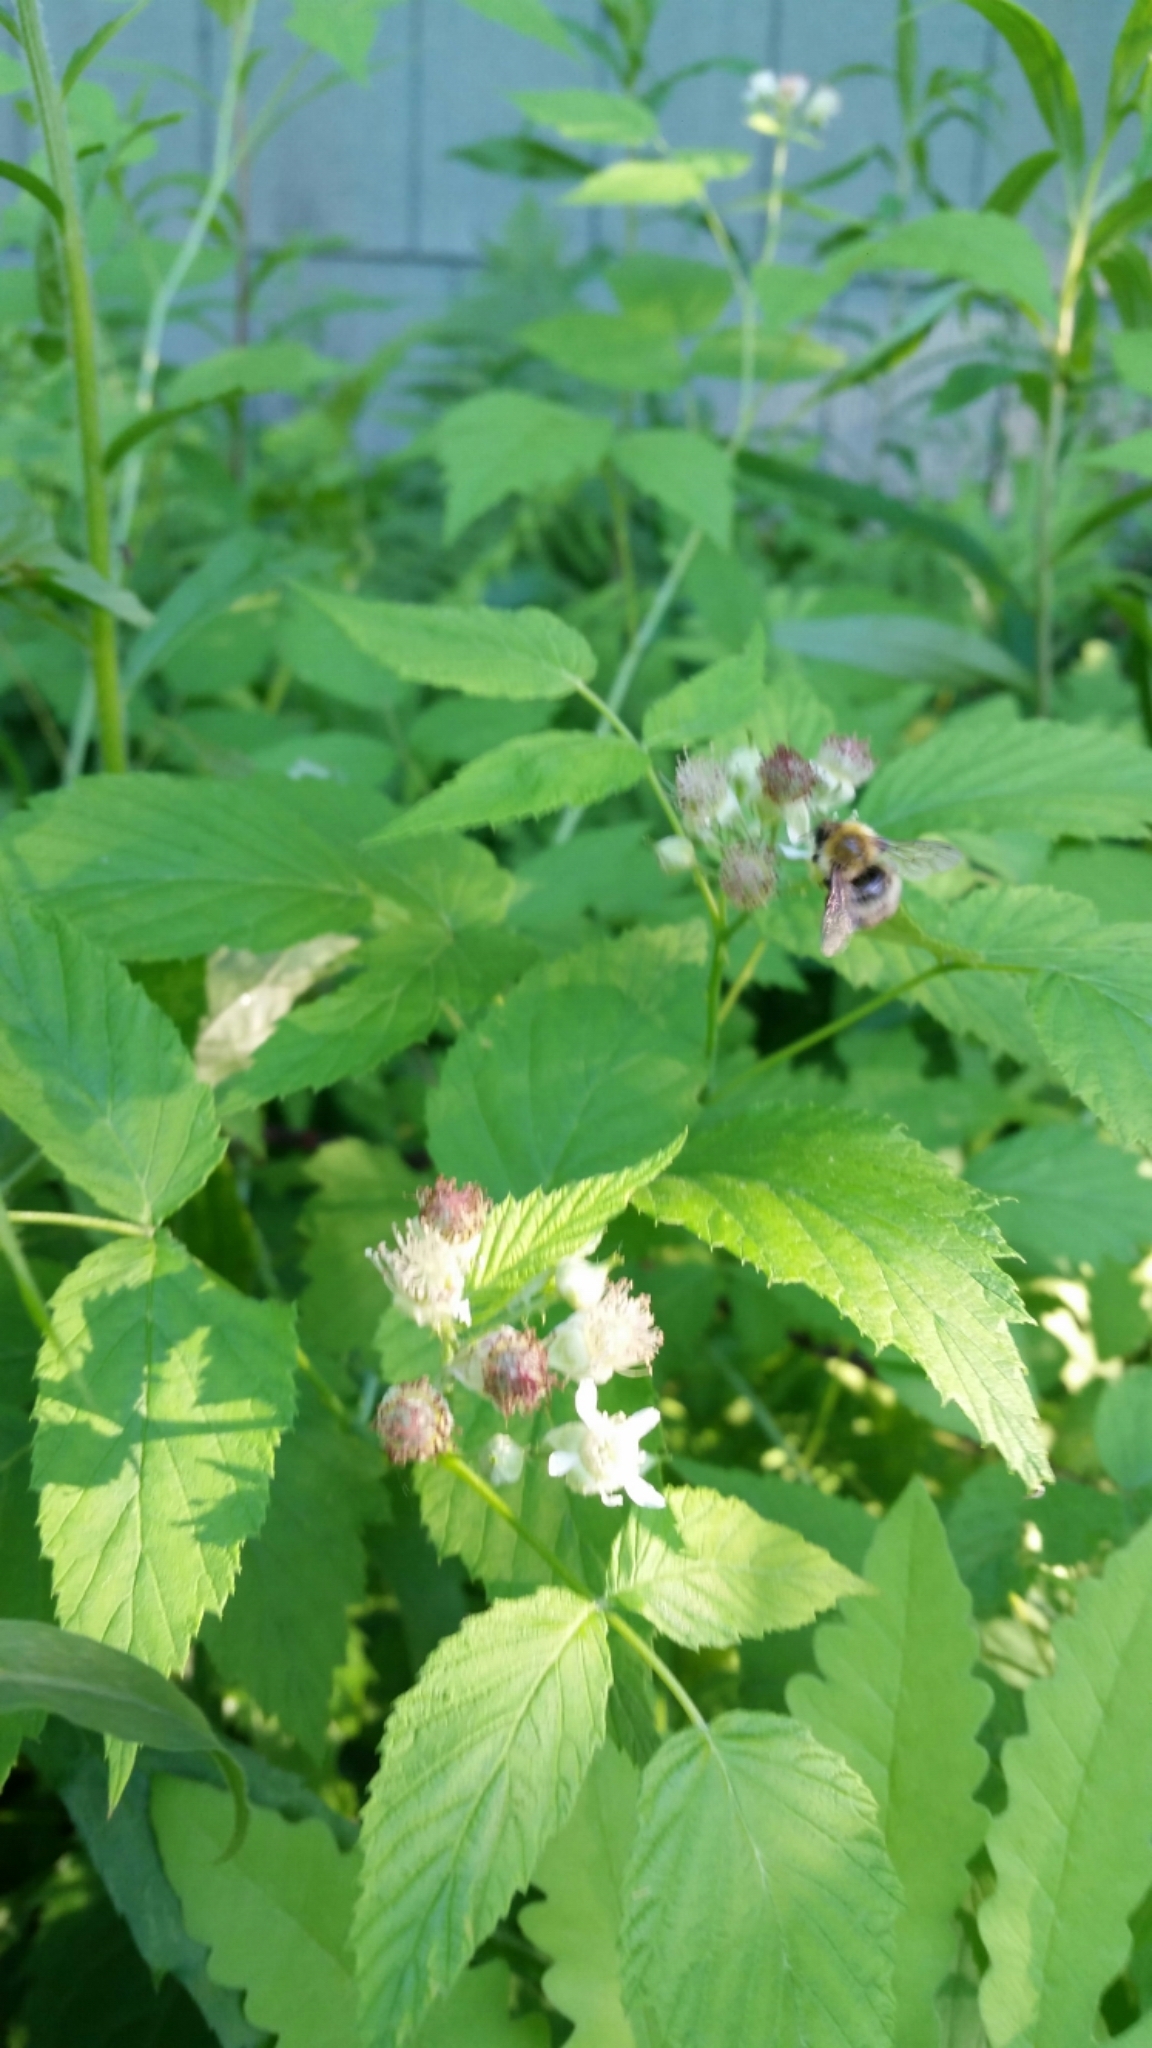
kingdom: Animalia
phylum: Arthropoda
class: Insecta
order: Hymenoptera
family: Apidae
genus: Bombus
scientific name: Bombus perplexus
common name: Confusing bumble bee
